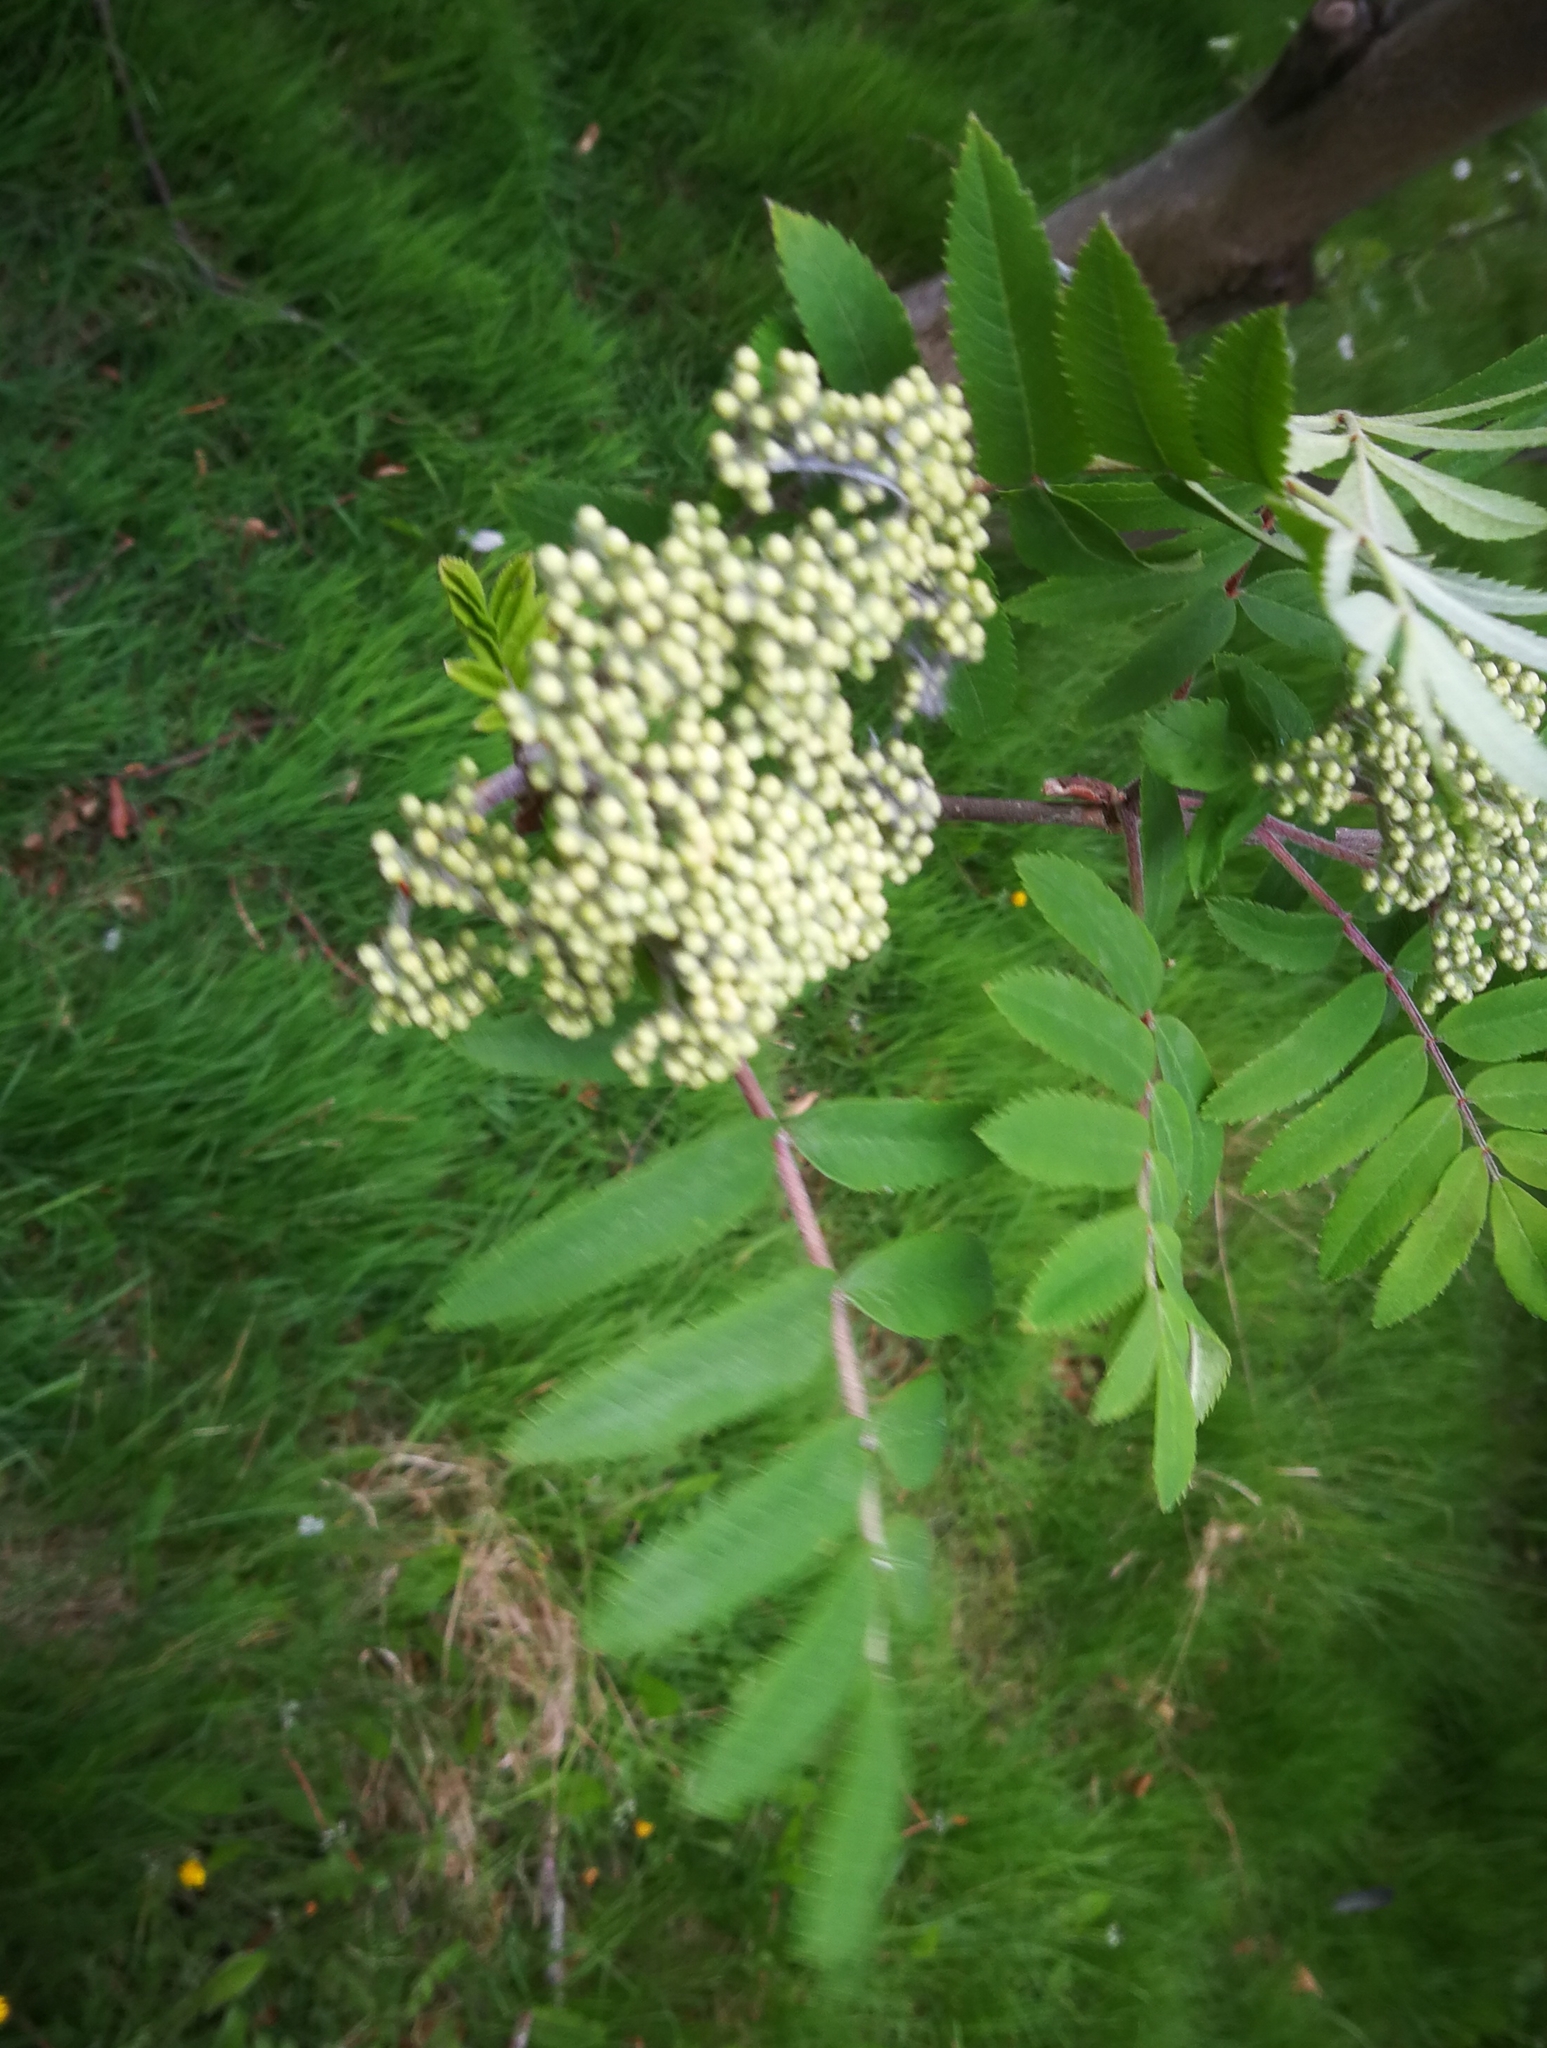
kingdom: Plantae
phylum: Tracheophyta
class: Magnoliopsida
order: Rosales
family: Rosaceae
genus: Sorbus
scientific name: Sorbus aucuparia
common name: Rowan
